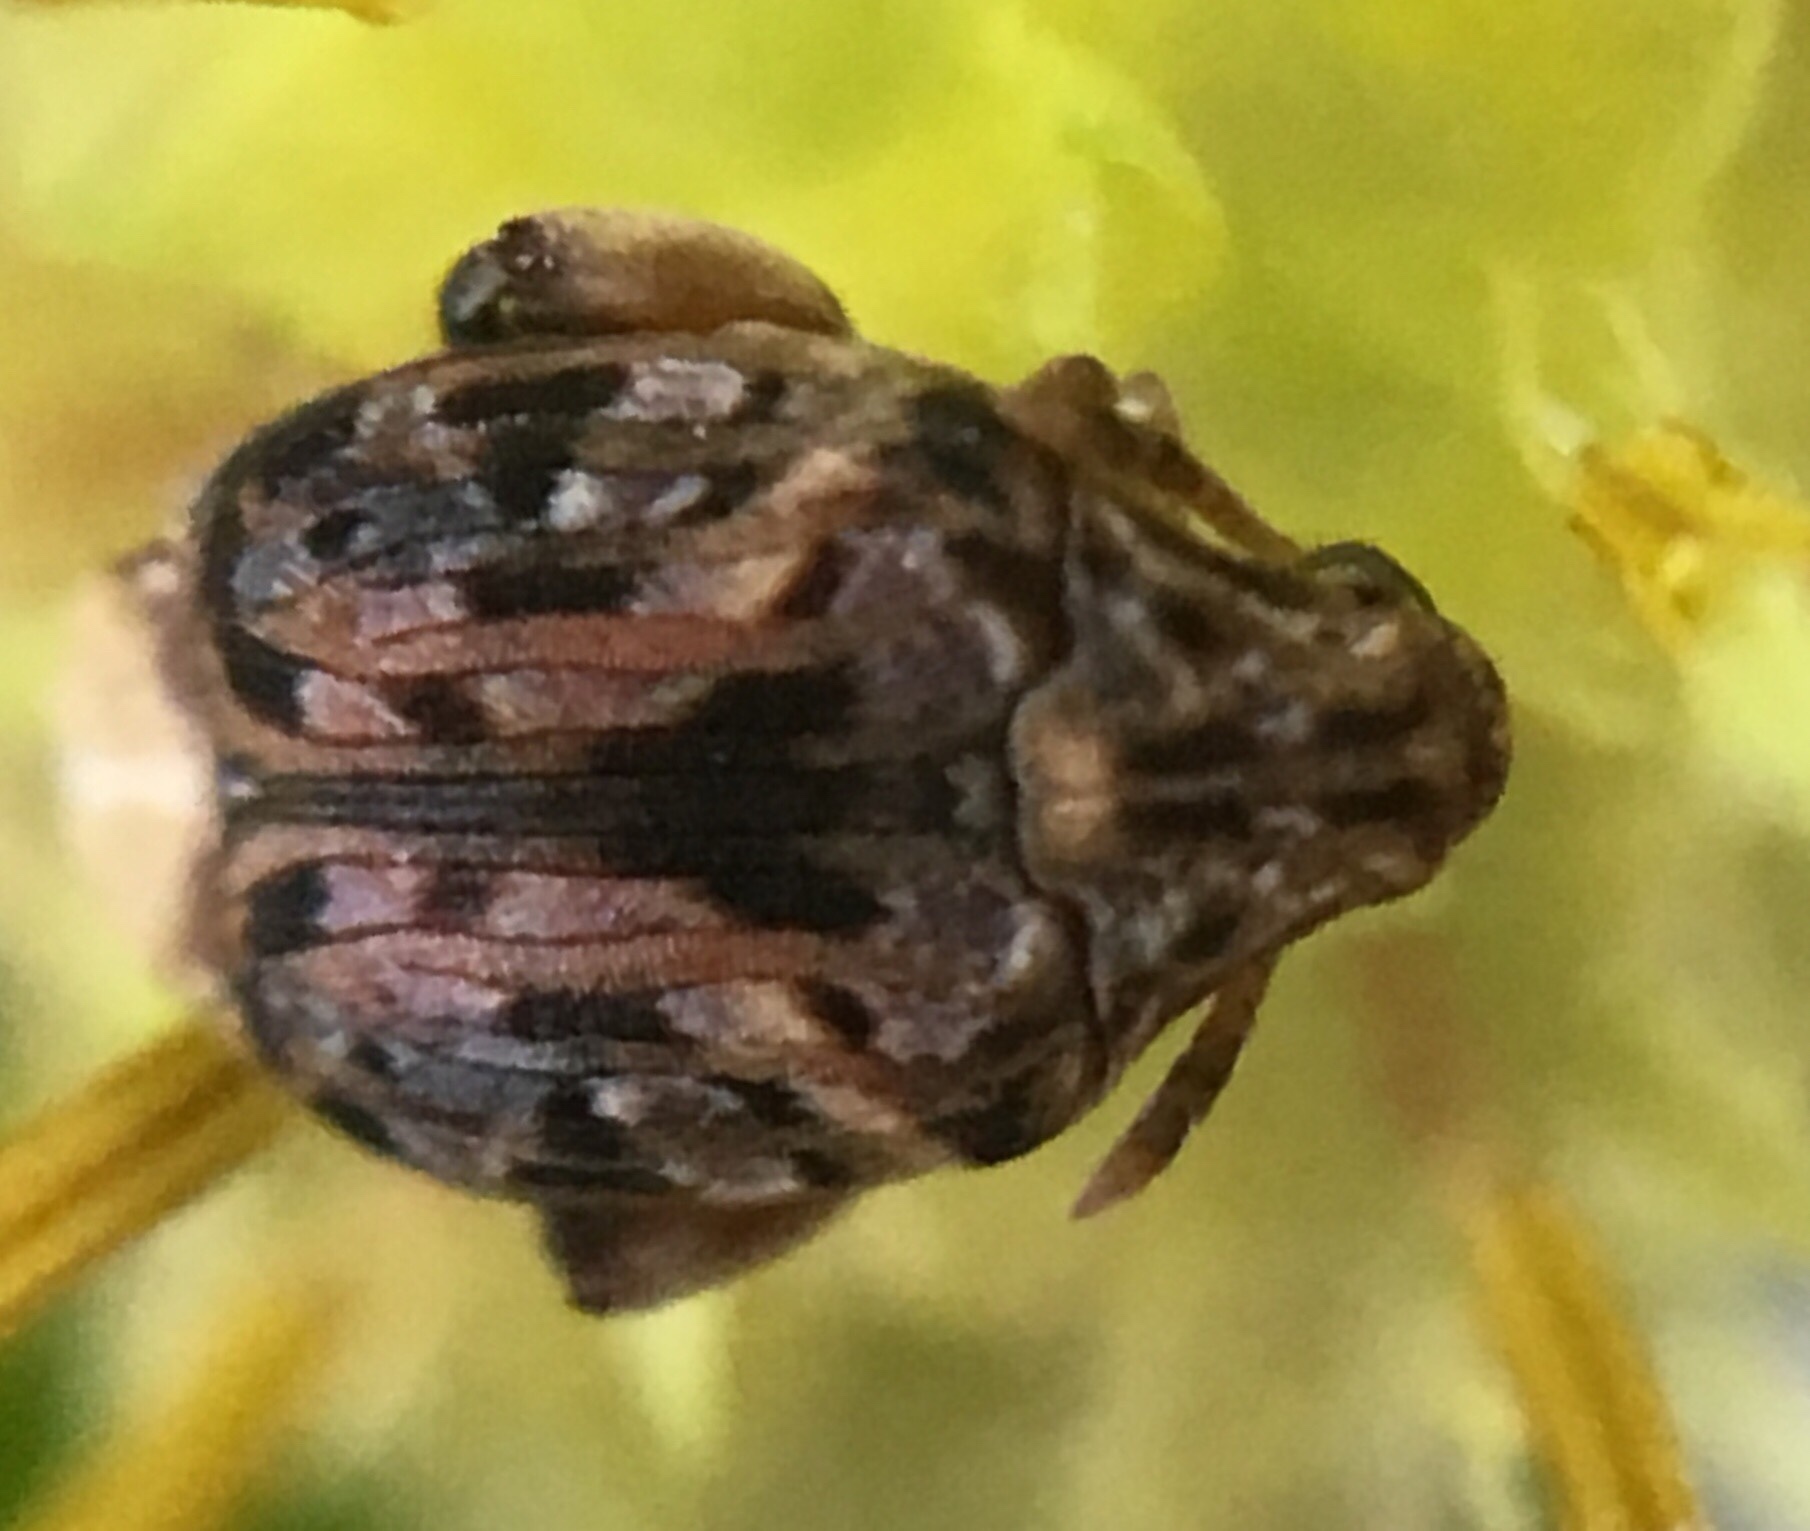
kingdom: Animalia
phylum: Arthropoda
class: Insecta
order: Coleoptera
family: Chrysomelidae
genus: Gibbobruchus
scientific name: Gibbobruchus mimus
